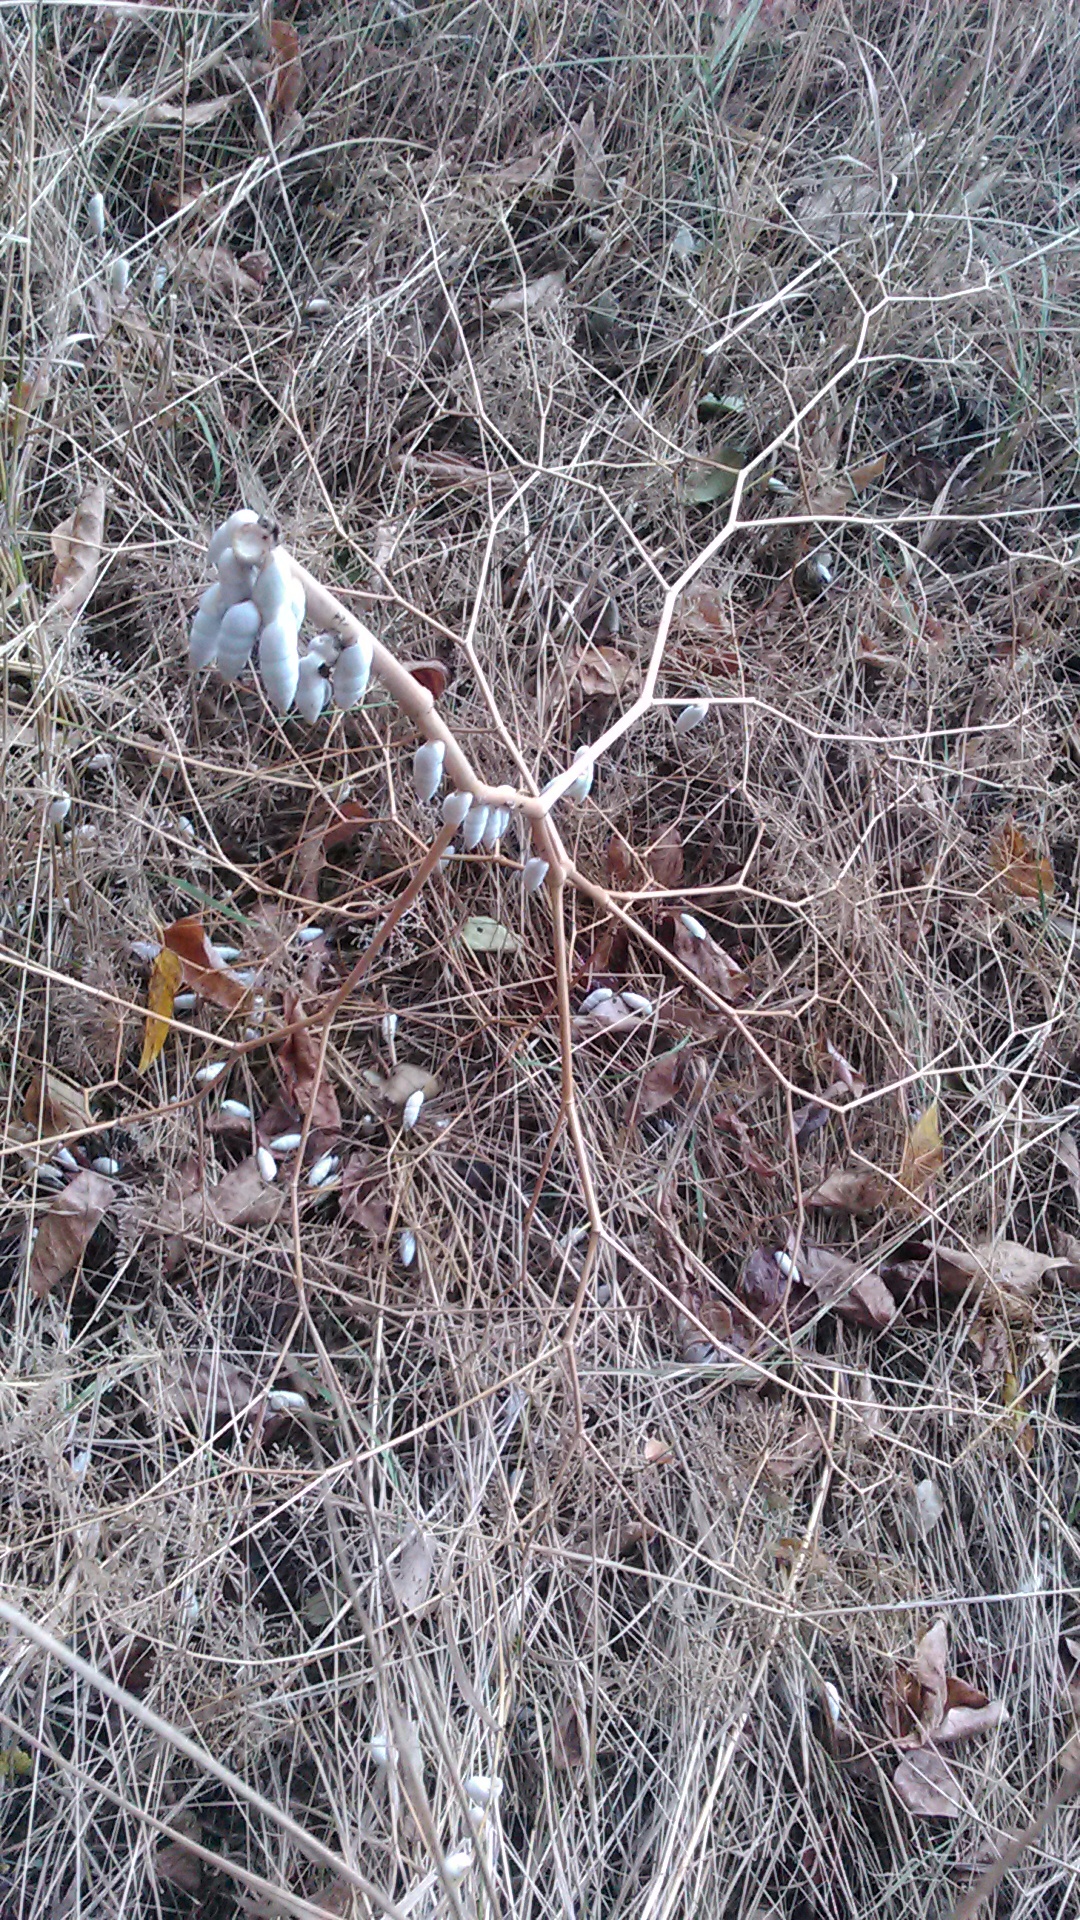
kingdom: Animalia
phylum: Mollusca
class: Gastropoda
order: Stylommatophora
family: Enidae
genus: Brephulopsis
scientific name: Brephulopsis cylindrica
